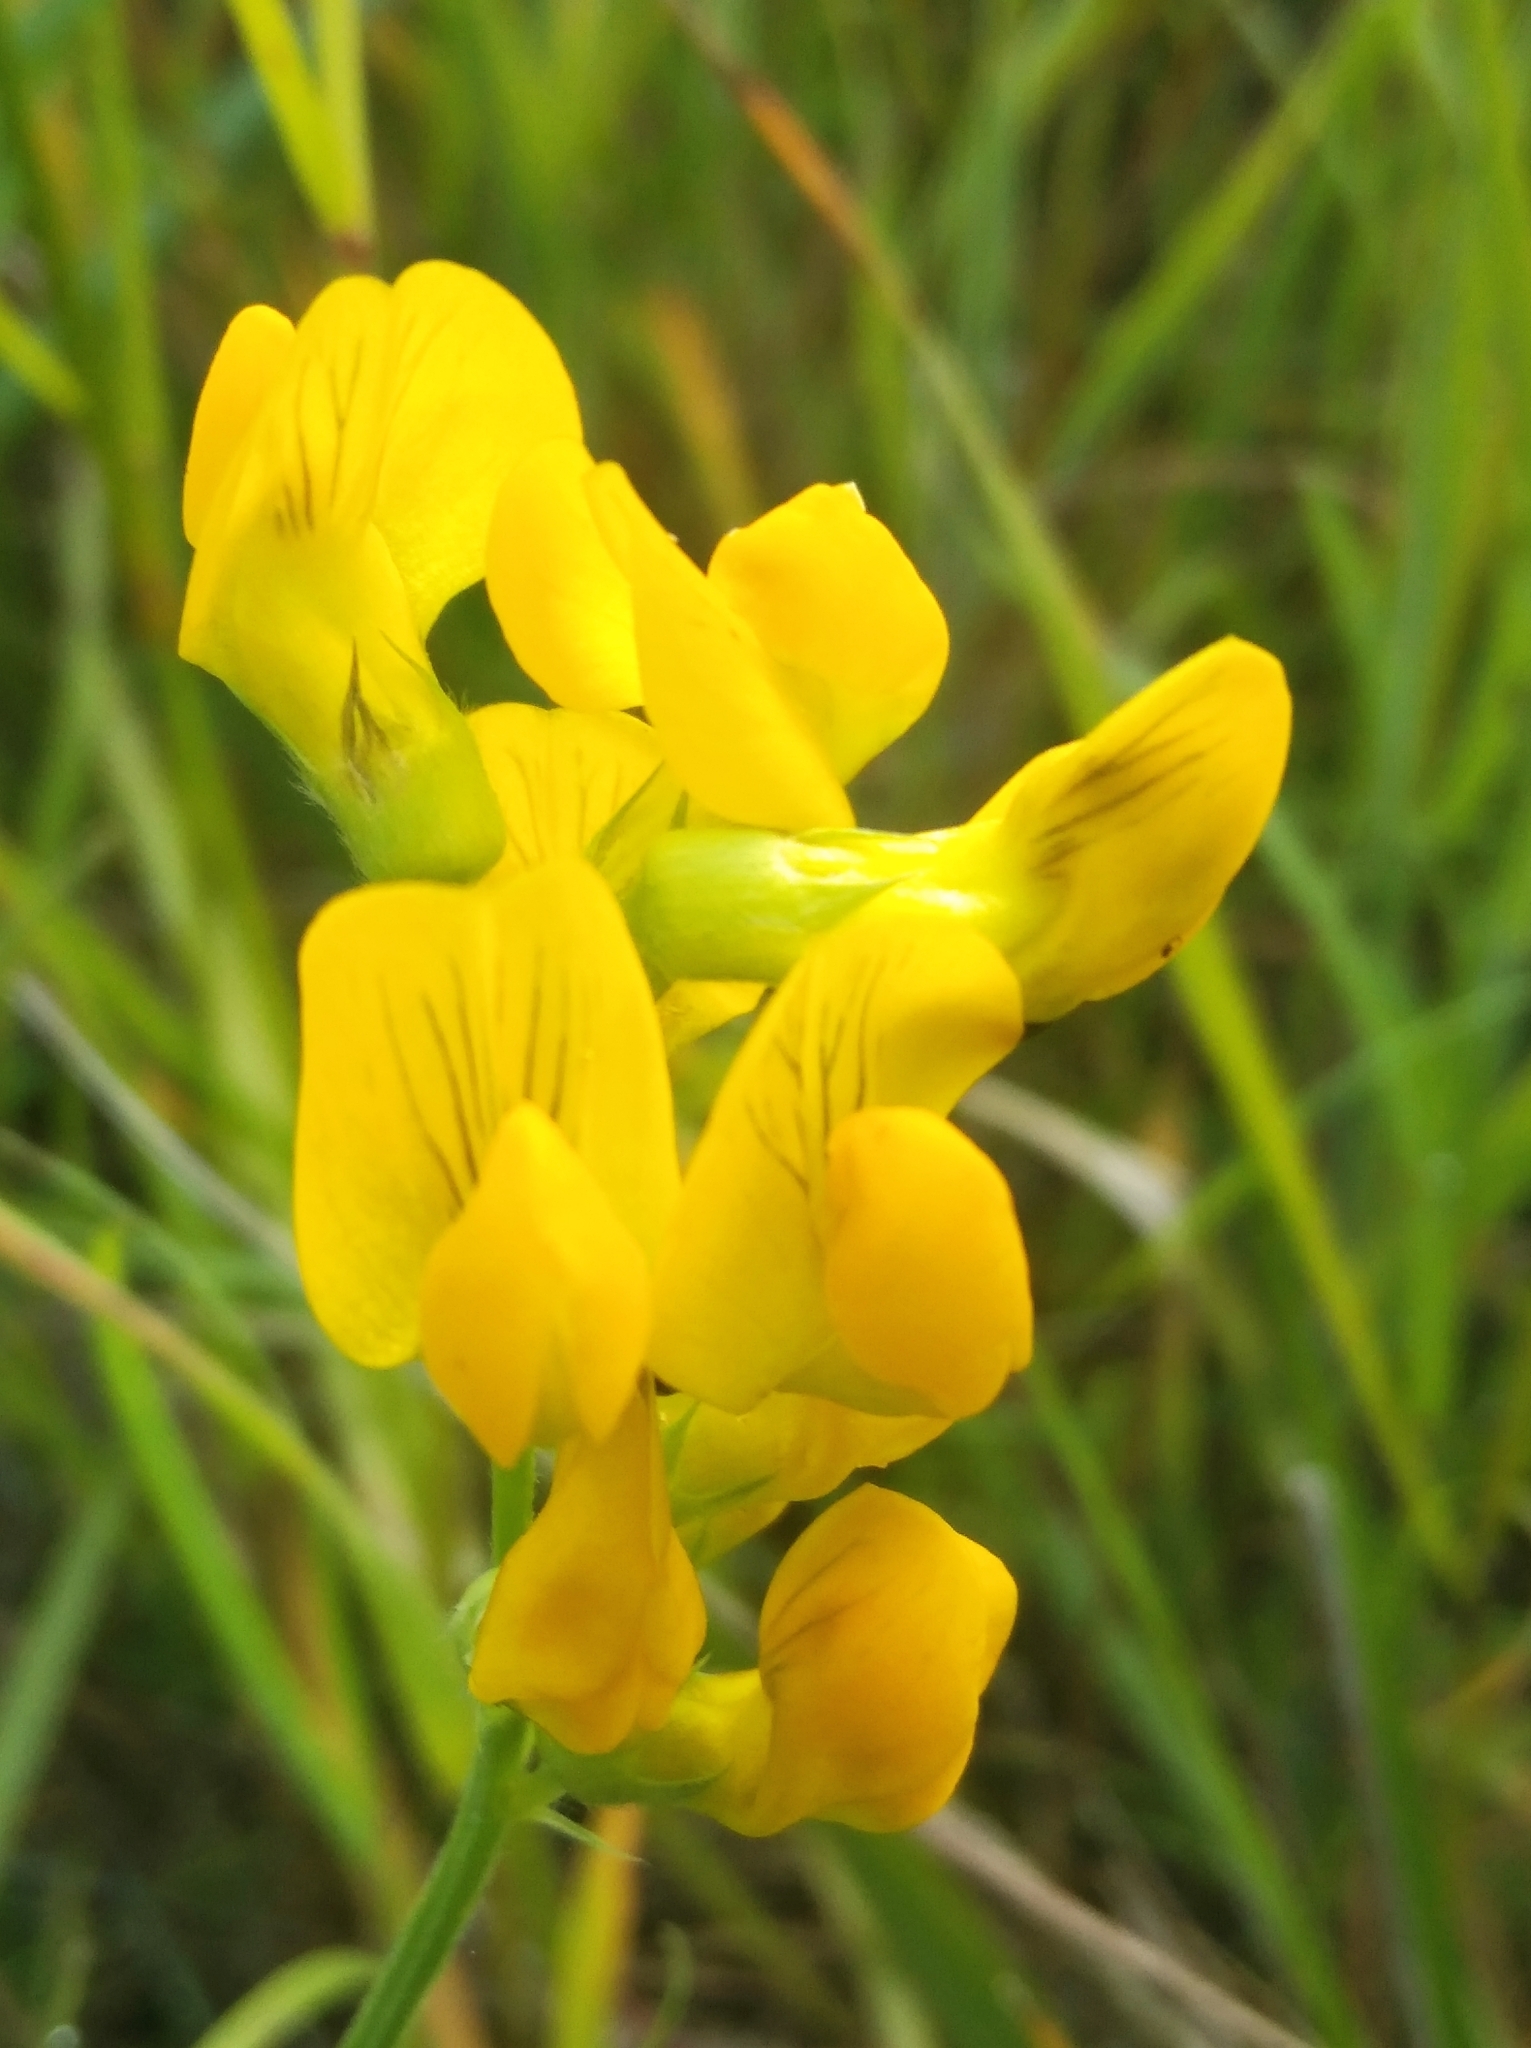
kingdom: Plantae
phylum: Tracheophyta
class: Magnoliopsida
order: Fabales
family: Fabaceae
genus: Lathyrus
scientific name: Lathyrus pratensis
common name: Meadow vetchling
